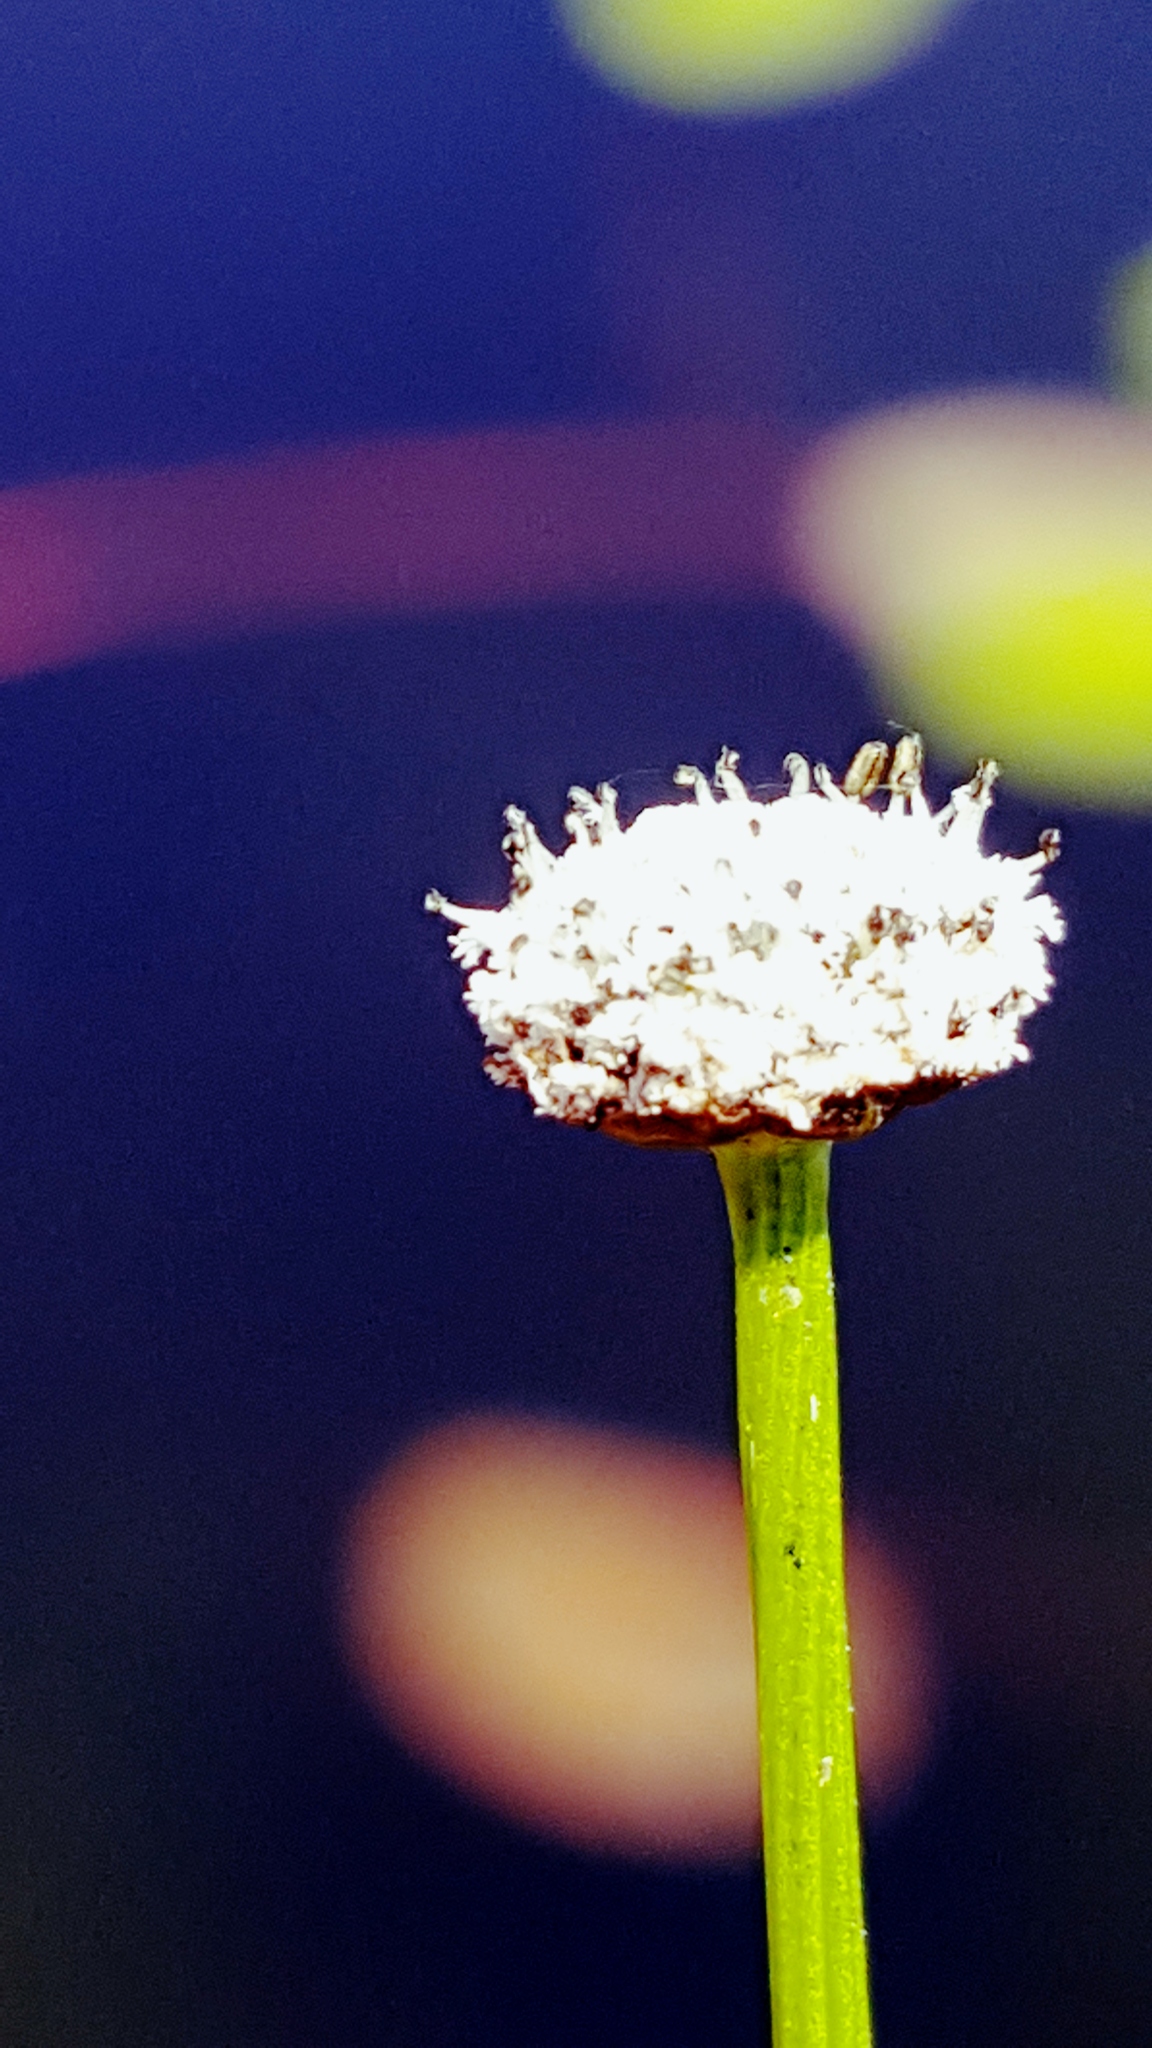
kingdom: Plantae
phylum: Tracheophyta
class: Liliopsida
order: Poales
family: Eriocaulaceae
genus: Eriocaulon
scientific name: Eriocaulon aquaticum
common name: Pipewort
